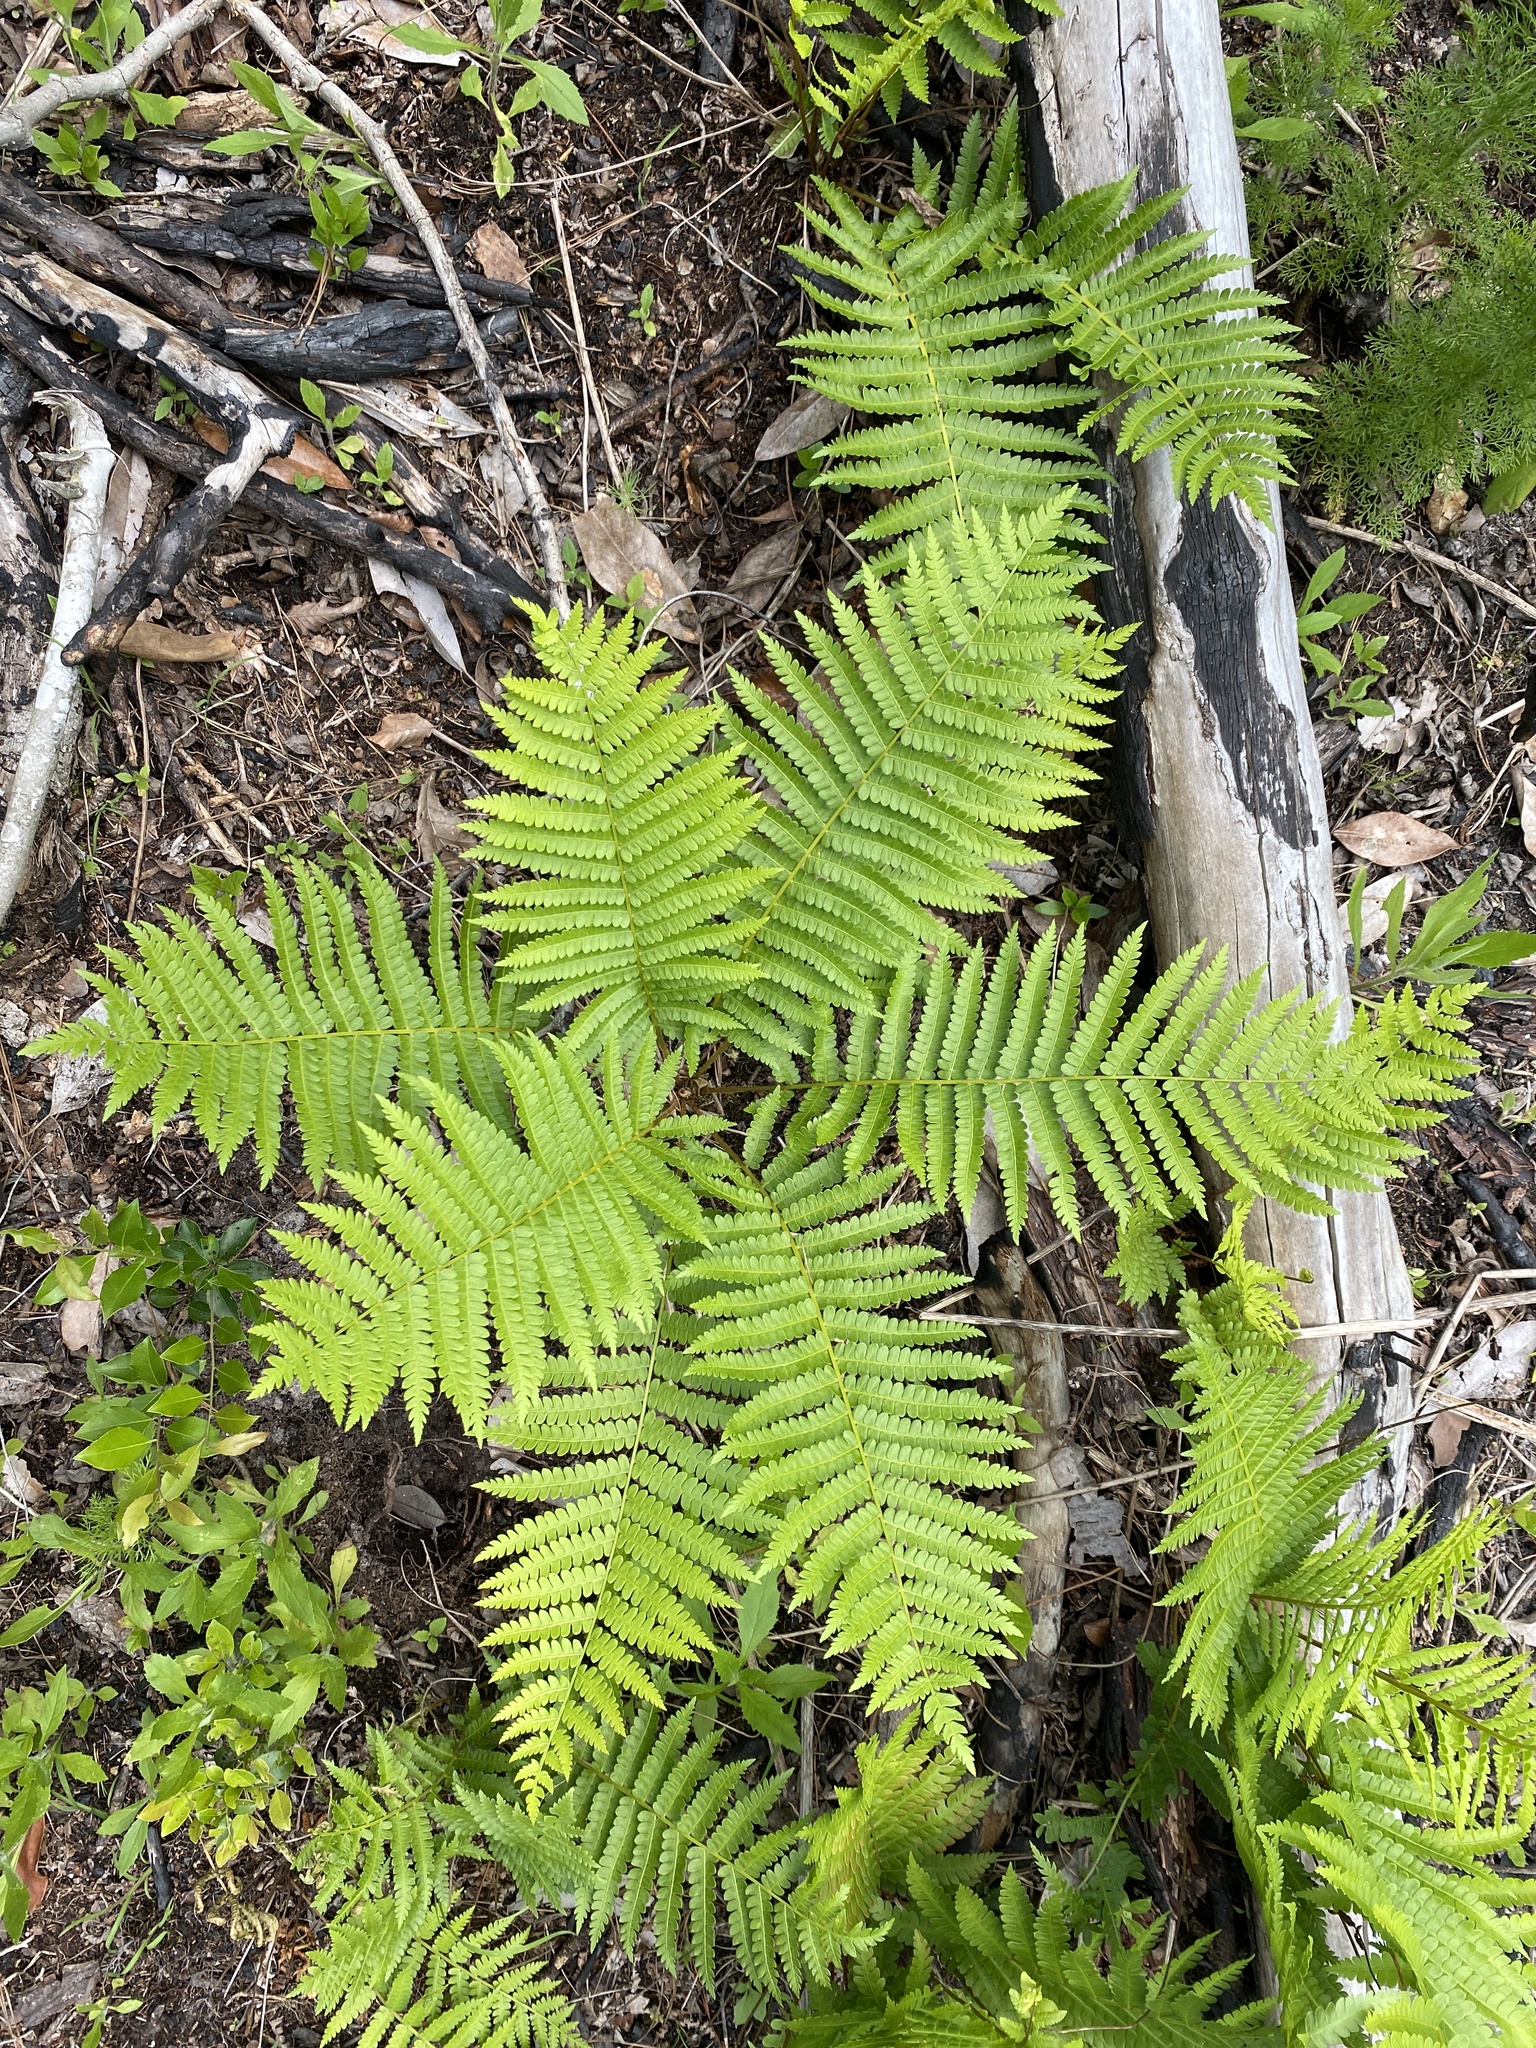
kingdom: Plantae
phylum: Tracheophyta
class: Polypodiopsida
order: Osmundales
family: Osmundaceae
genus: Osmundastrum
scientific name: Osmundastrum cinnamomeum
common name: Cinnamon fern
